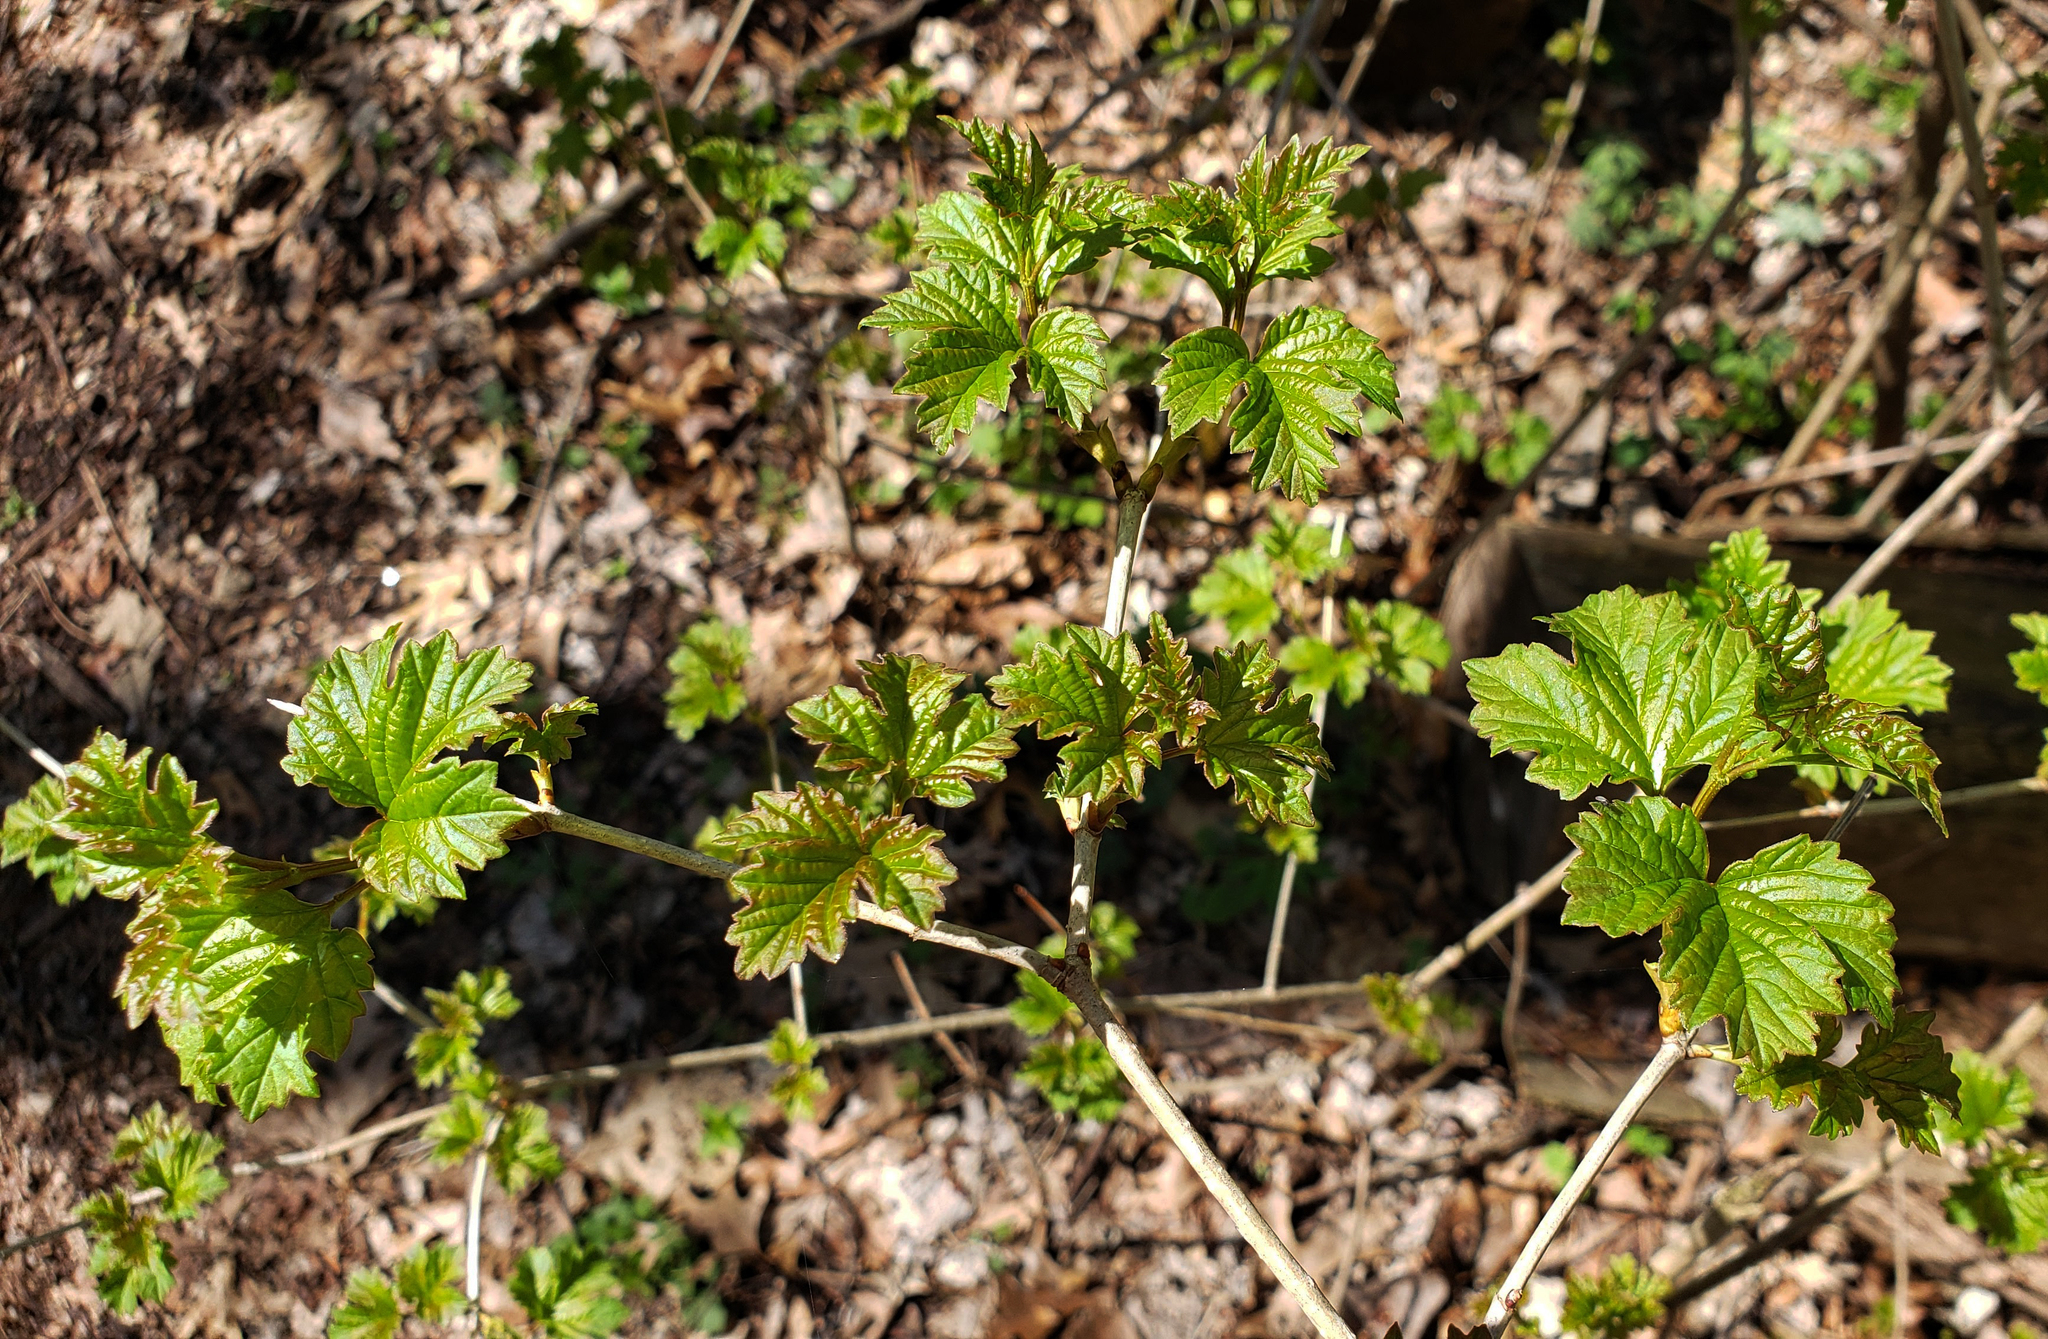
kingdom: Plantae
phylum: Tracheophyta
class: Magnoliopsida
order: Dipsacales
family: Viburnaceae
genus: Viburnum
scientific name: Viburnum opulus
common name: Guelder-rose
